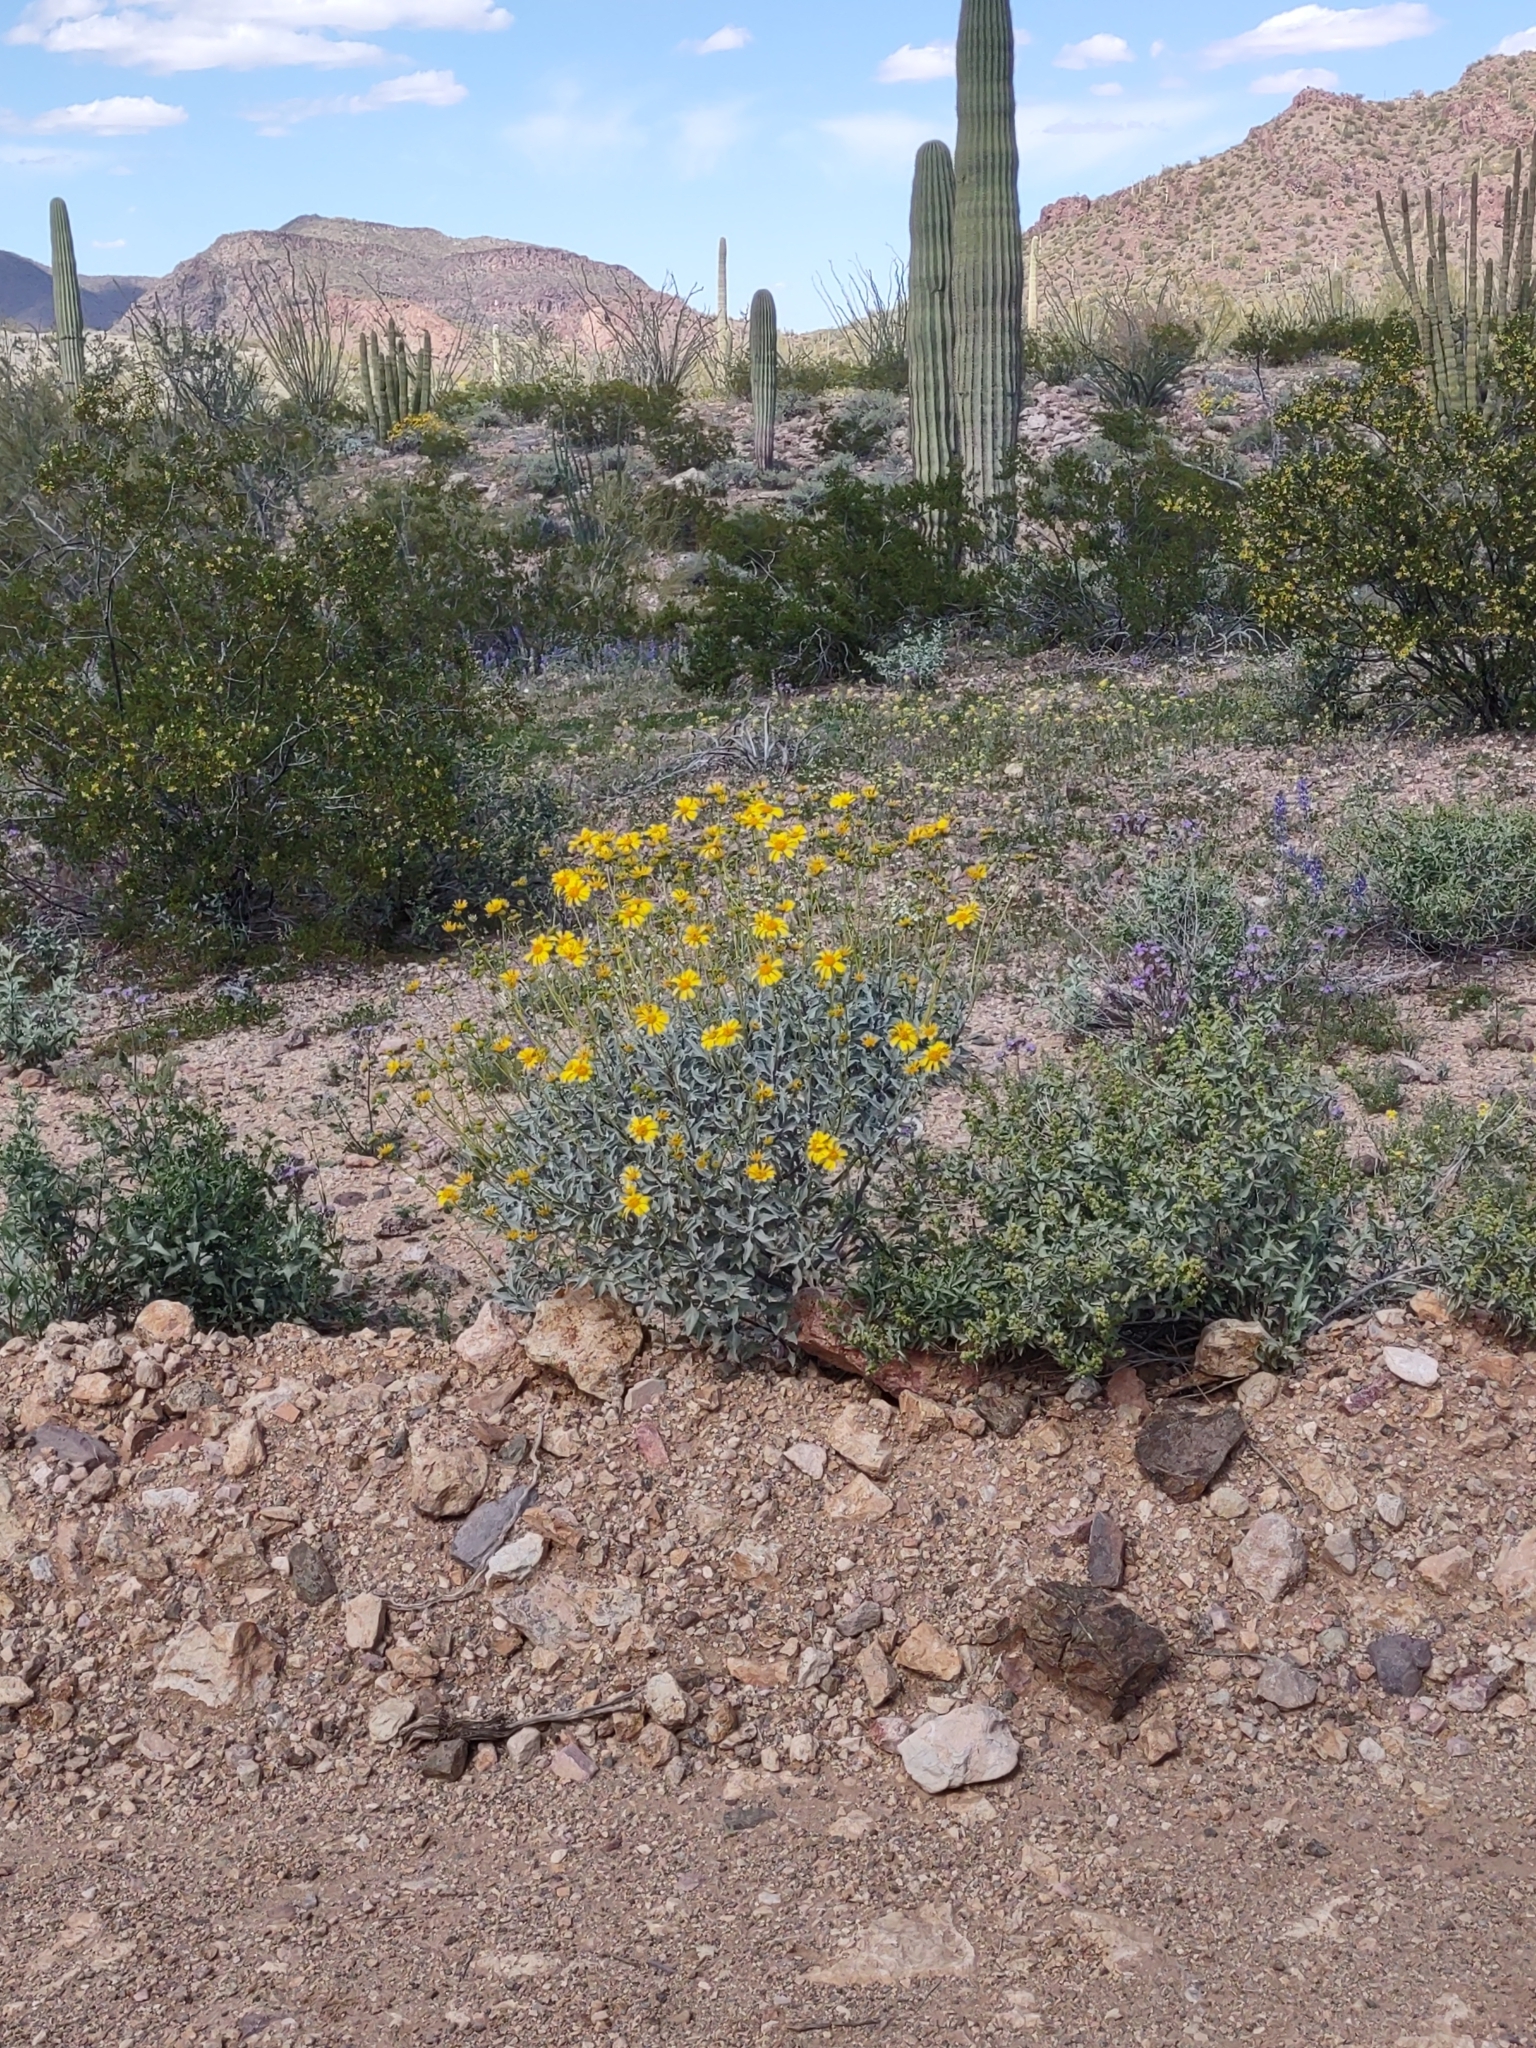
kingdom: Plantae
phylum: Tracheophyta
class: Magnoliopsida
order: Asterales
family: Asteraceae
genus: Encelia
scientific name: Encelia farinosa
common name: Brittlebush
